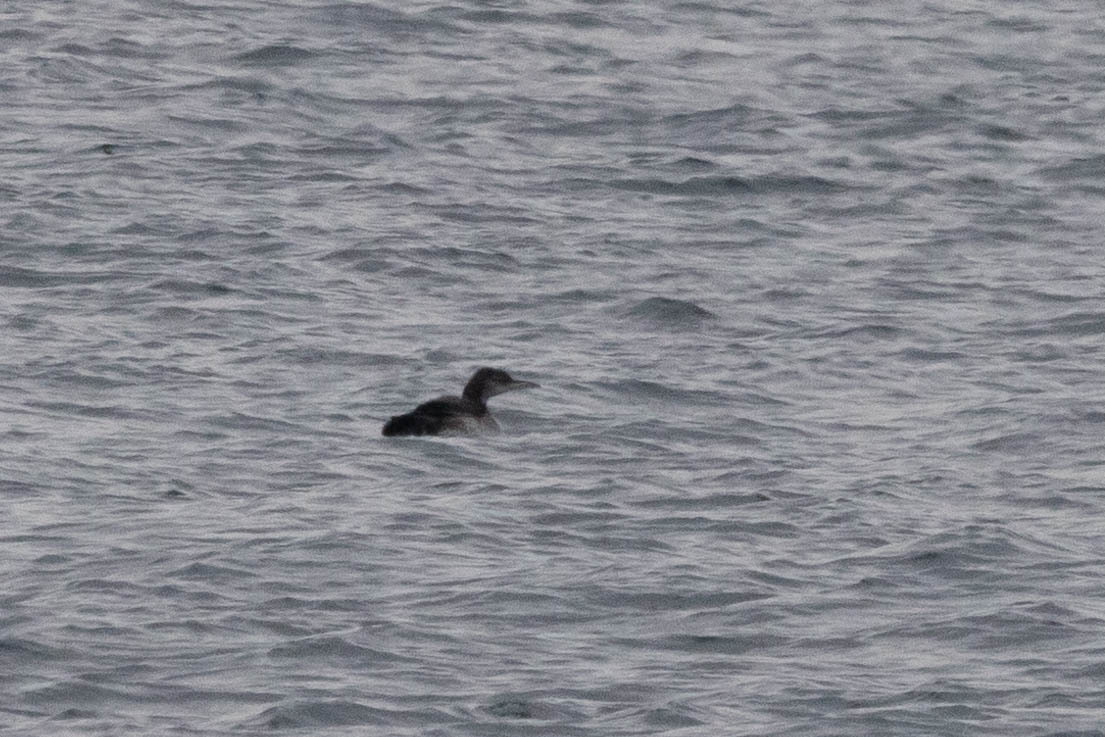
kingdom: Animalia
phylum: Chordata
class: Aves
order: Gaviiformes
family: Gaviidae
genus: Gavia
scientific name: Gavia immer
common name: Common loon
